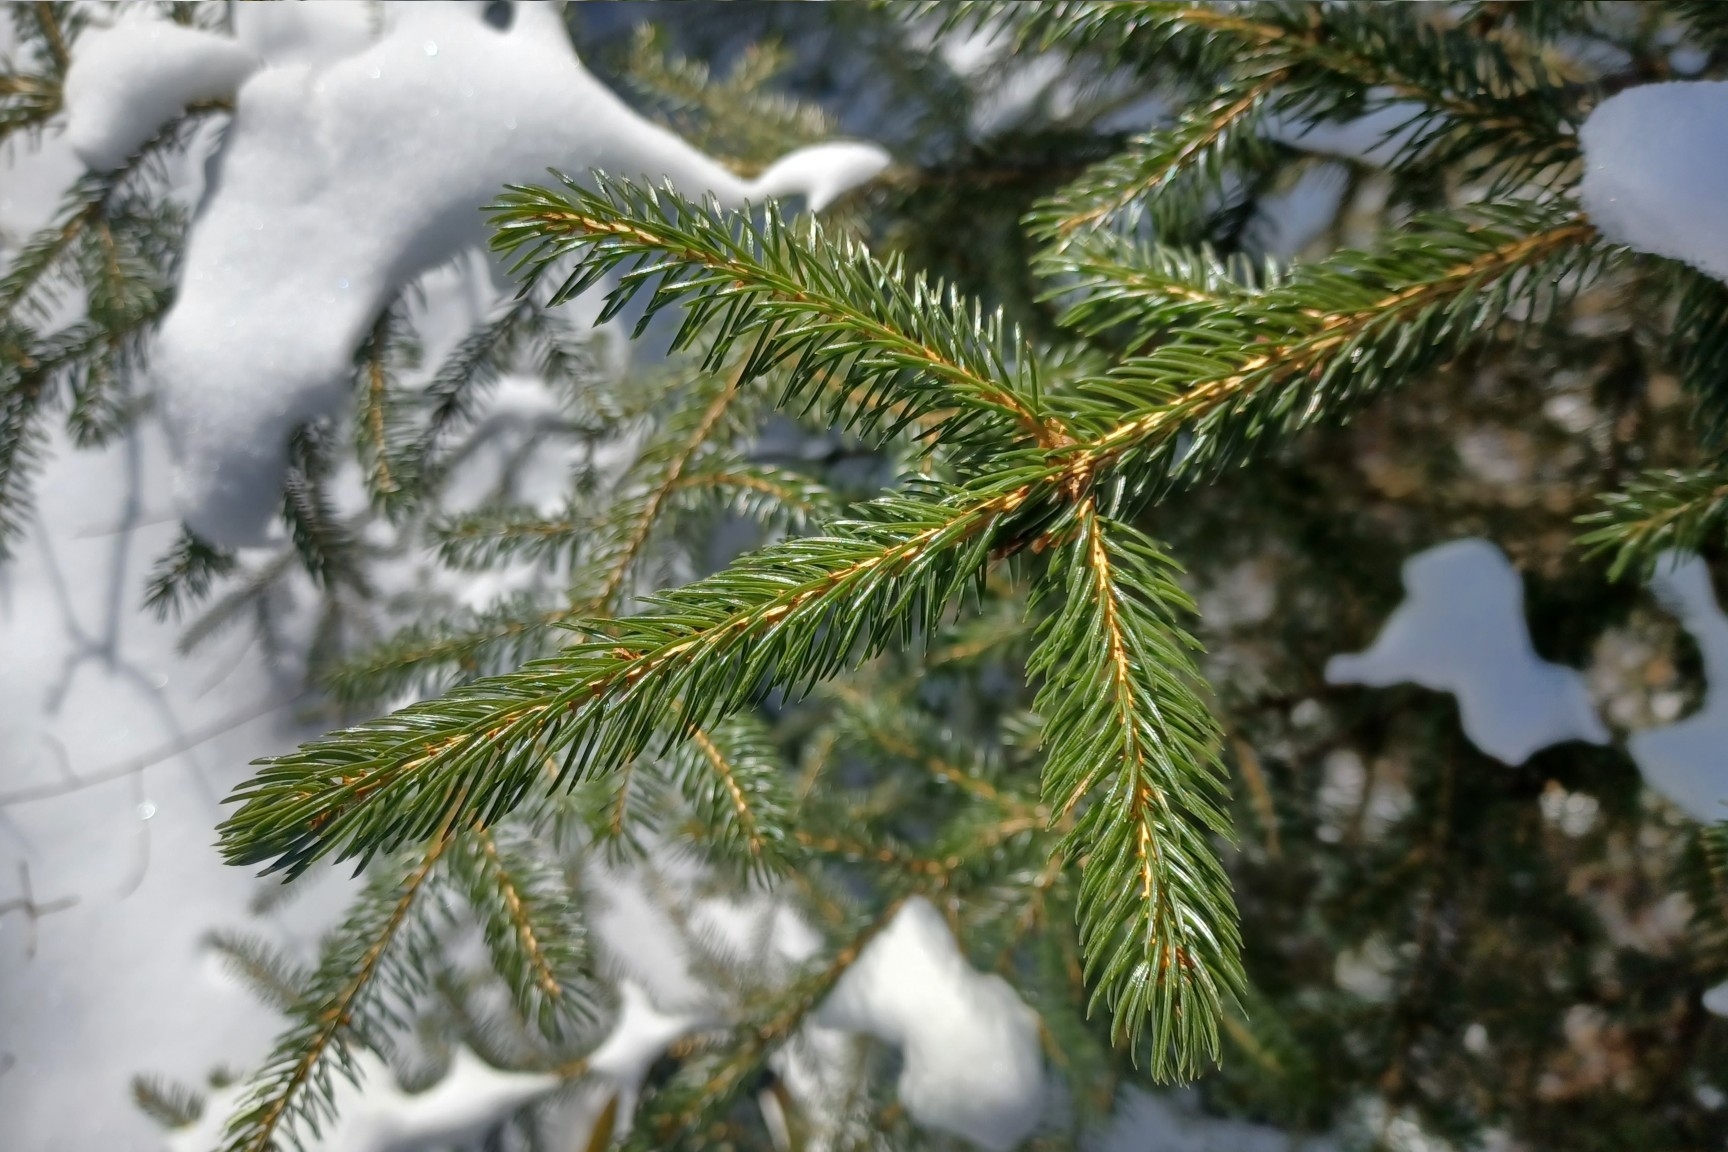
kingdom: Plantae
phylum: Tracheophyta
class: Pinopsida
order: Pinales
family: Pinaceae
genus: Picea
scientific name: Picea rubens
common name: Red spruce
